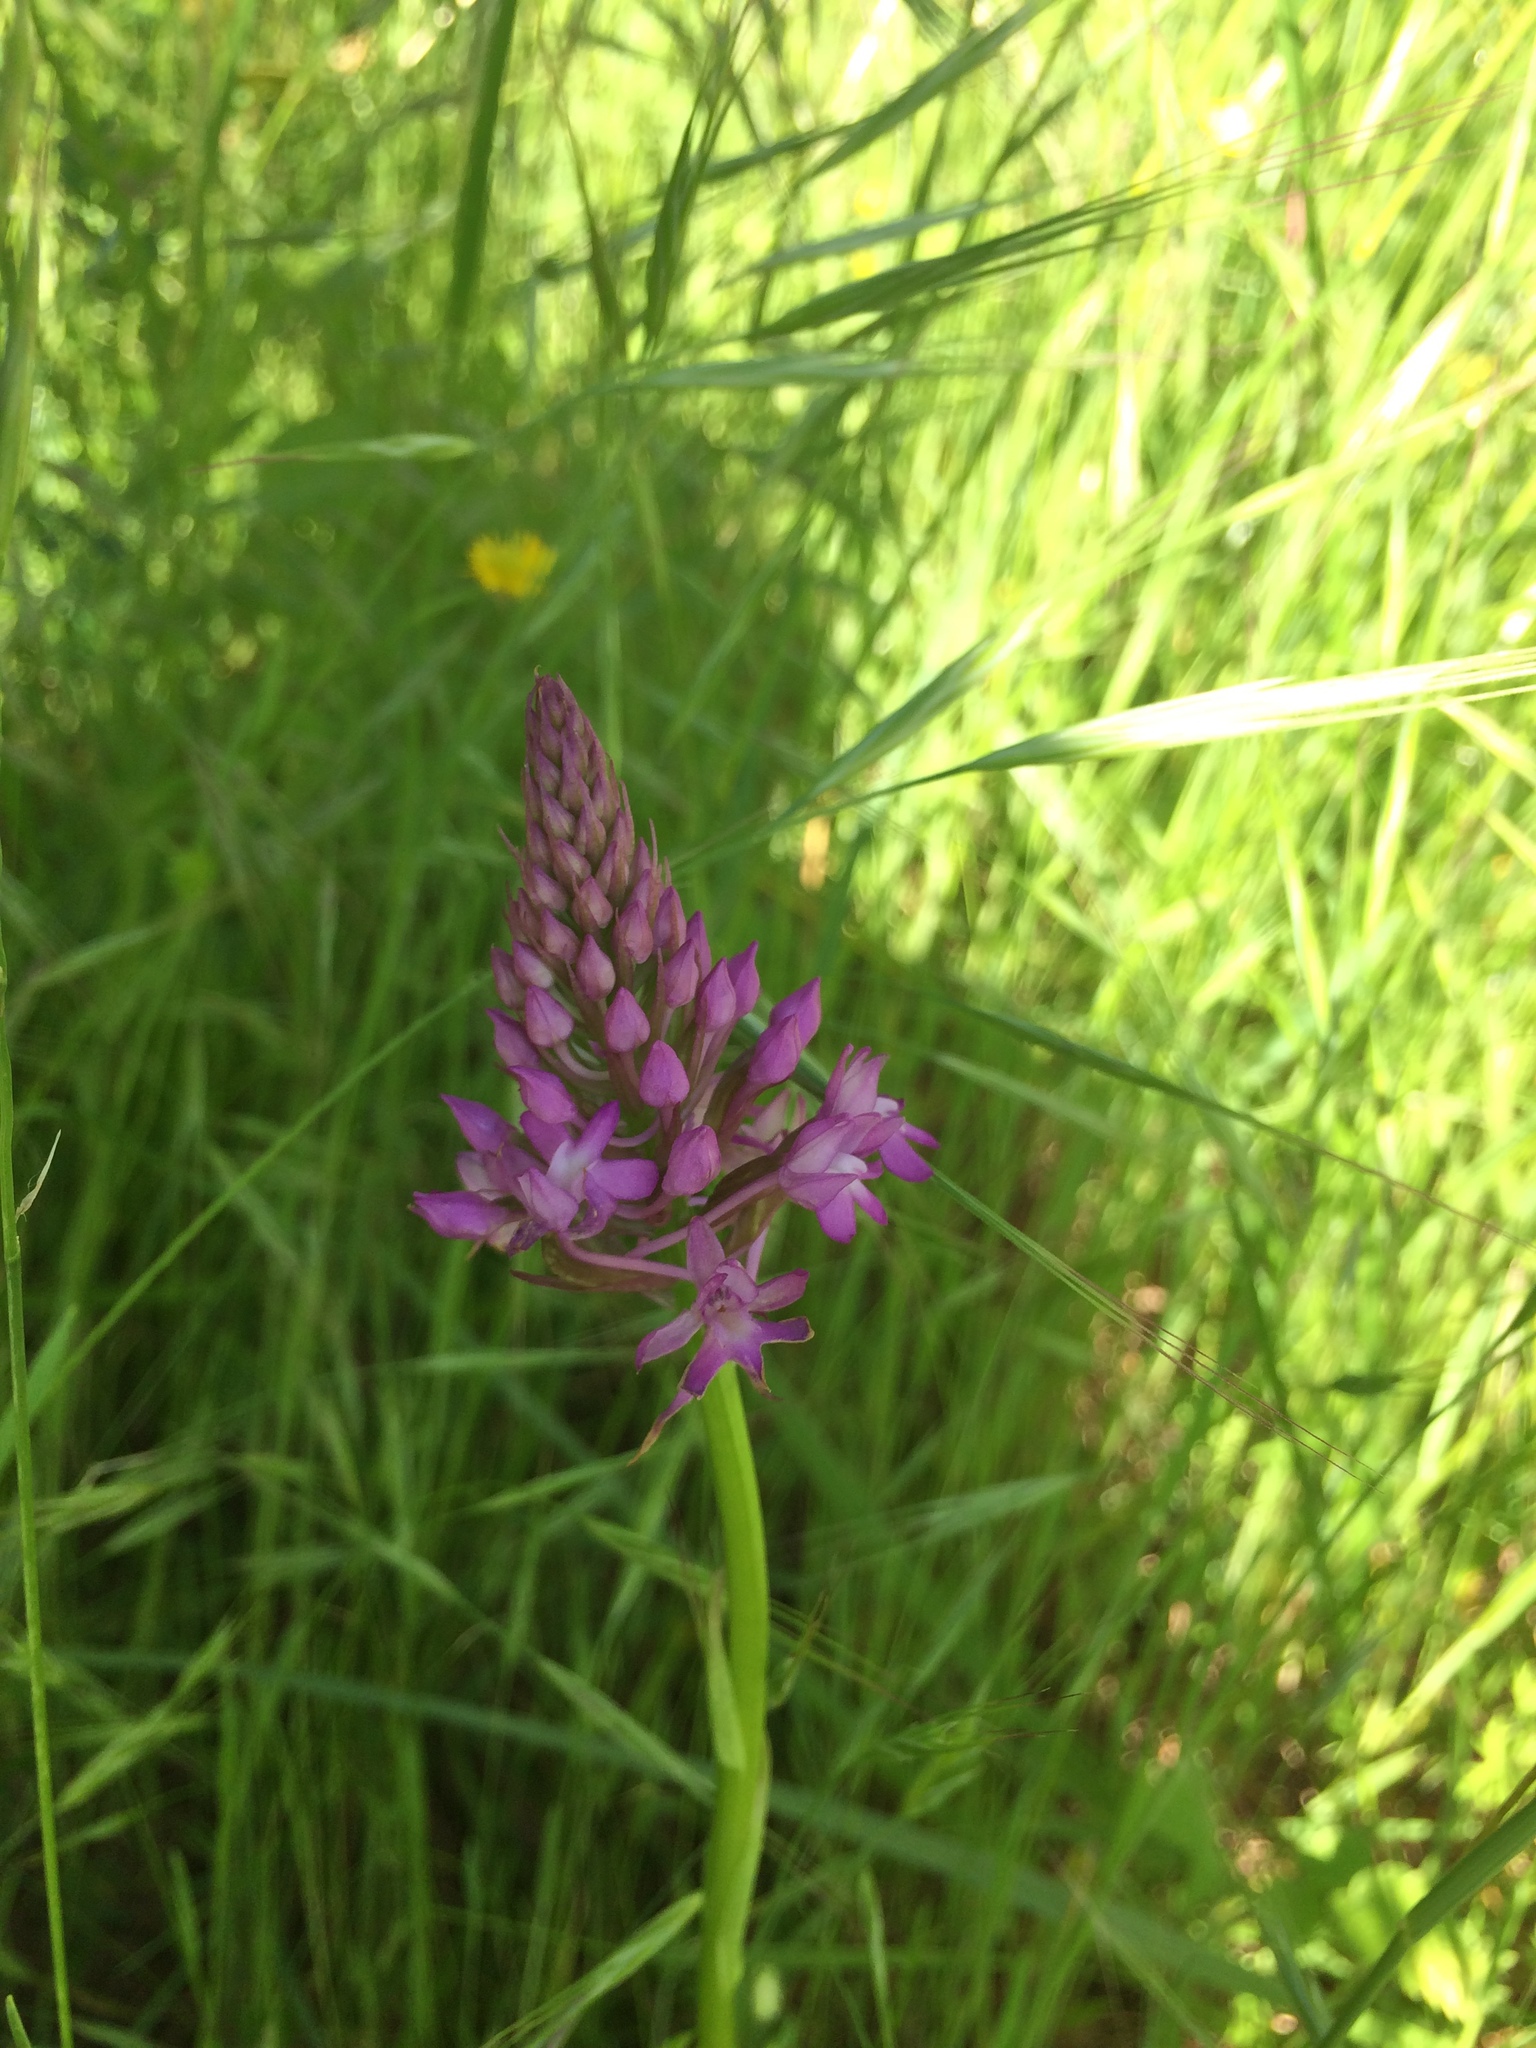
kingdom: Plantae
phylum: Tracheophyta
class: Liliopsida
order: Asparagales
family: Orchidaceae
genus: Anacamptis
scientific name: Anacamptis pyramidalis
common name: Pyramidal orchid
